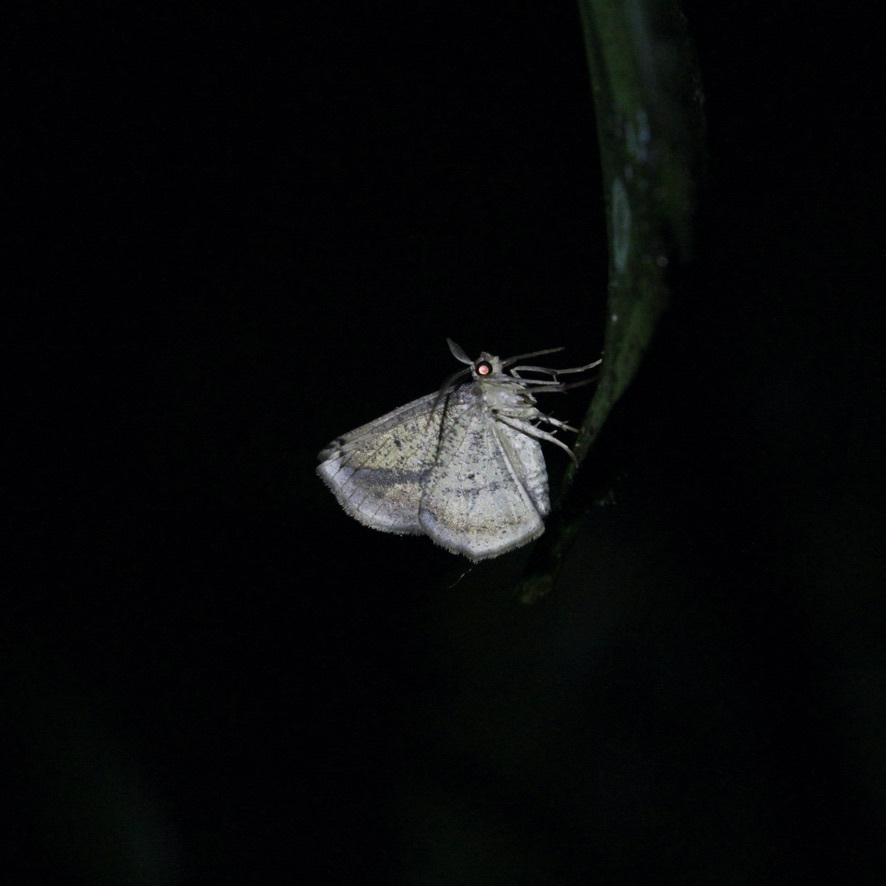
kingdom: Animalia
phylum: Arthropoda
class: Insecta
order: Lepidoptera
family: Geometridae
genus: Eusarca
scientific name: Eusarca concomitaria
